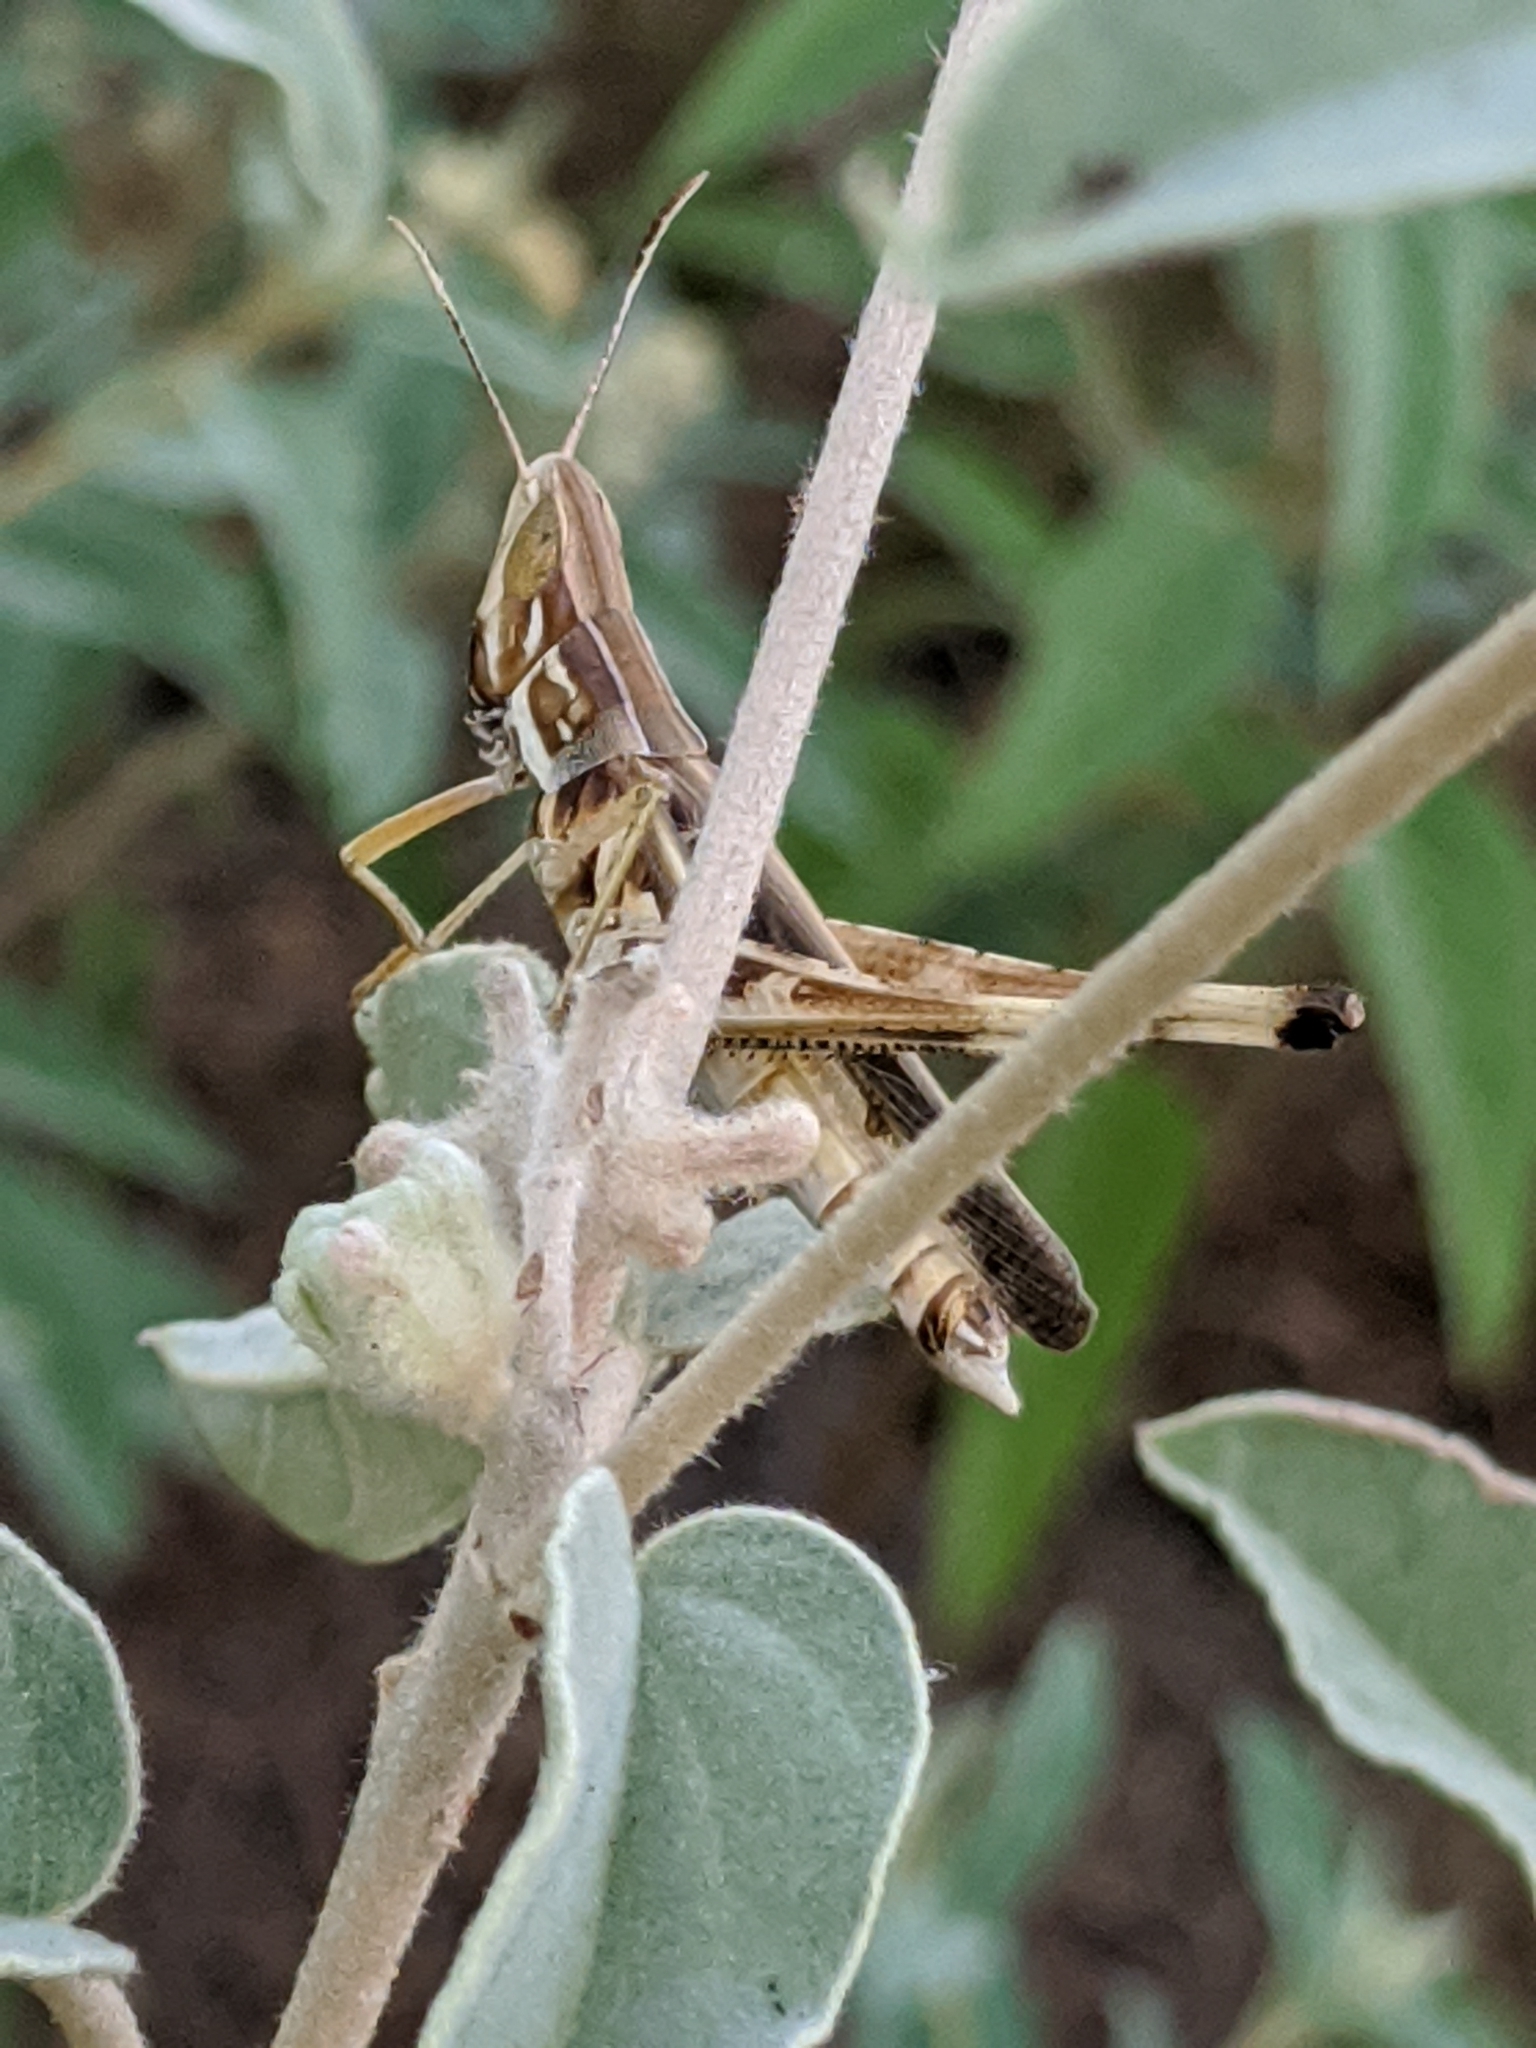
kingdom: Animalia
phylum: Arthropoda
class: Insecta
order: Orthoptera
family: Acrididae
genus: Syrbula
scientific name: Syrbula admirabilis
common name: Handsome grasshopper
